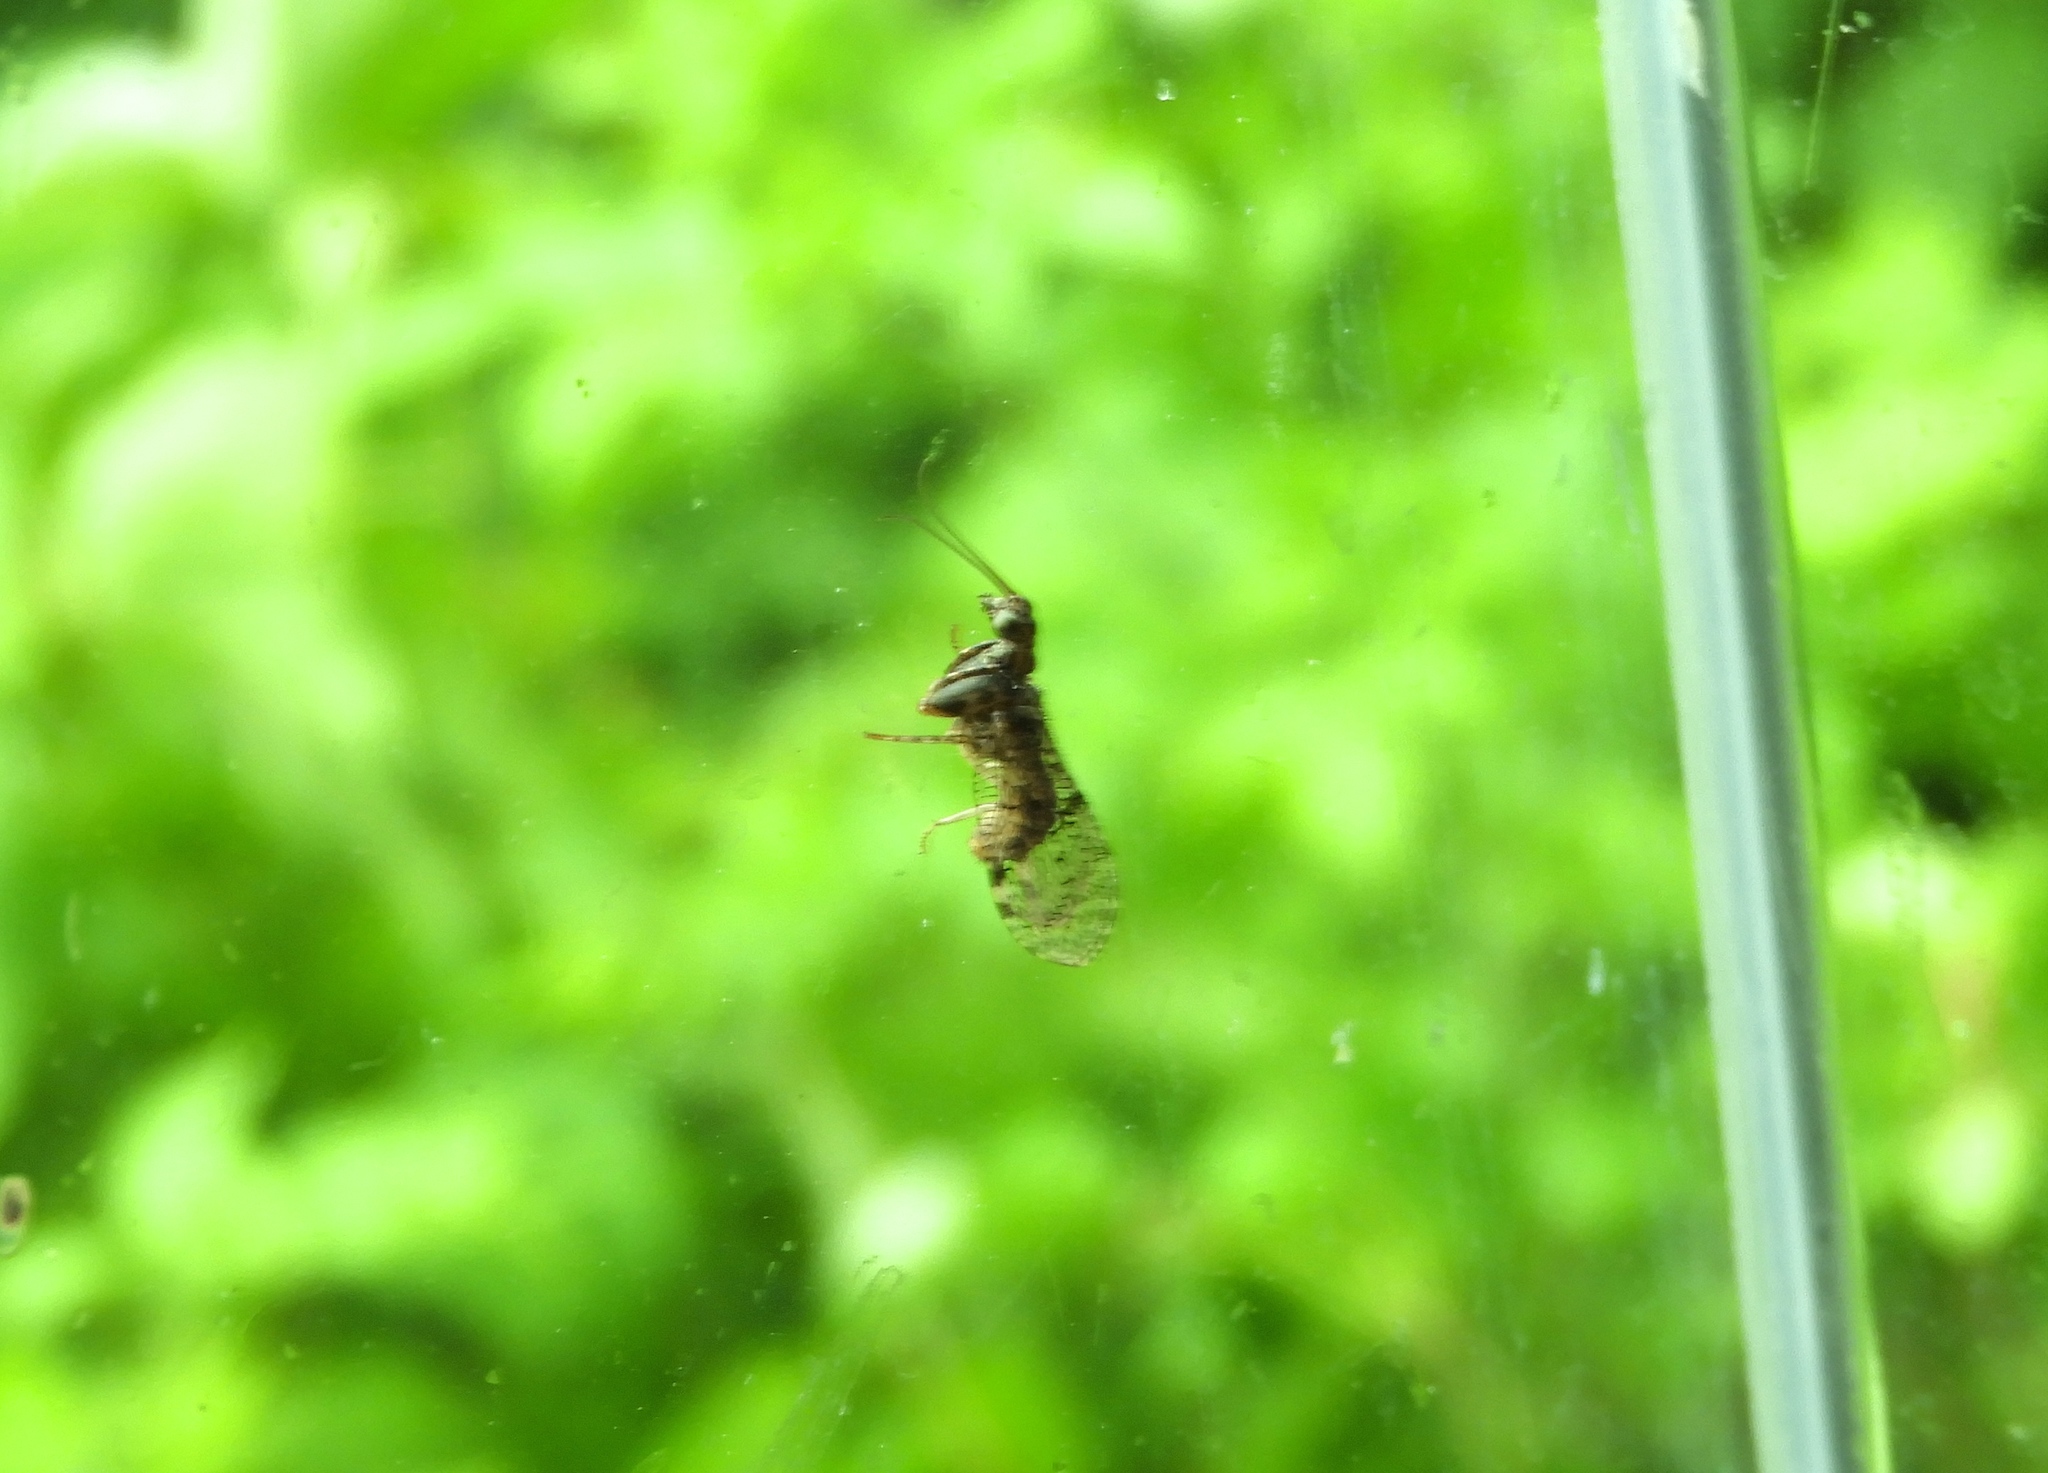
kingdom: Animalia
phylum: Arthropoda
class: Insecta
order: Neuroptera
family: Mantispidae
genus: Plega
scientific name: Plega
